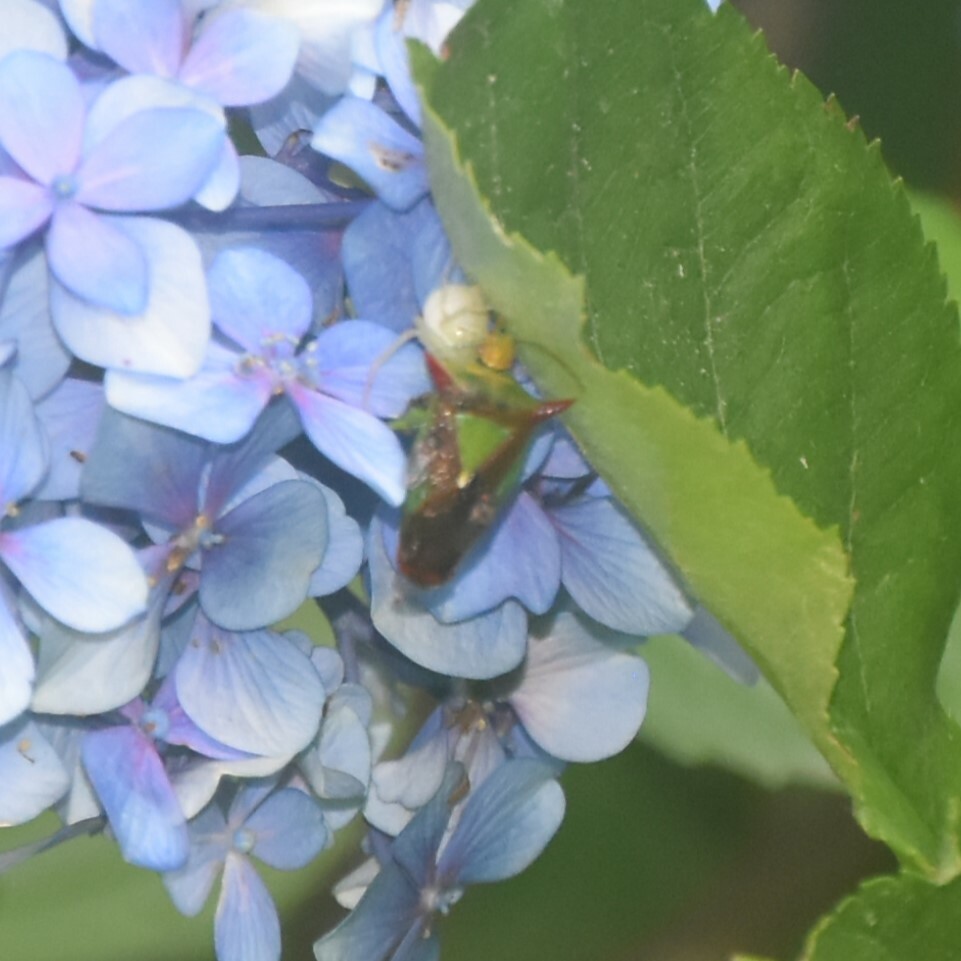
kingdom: Animalia
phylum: Arthropoda
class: Insecta
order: Hemiptera
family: Acanthosomatidae
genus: Acanthosoma
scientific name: Acanthosoma murreeanum
